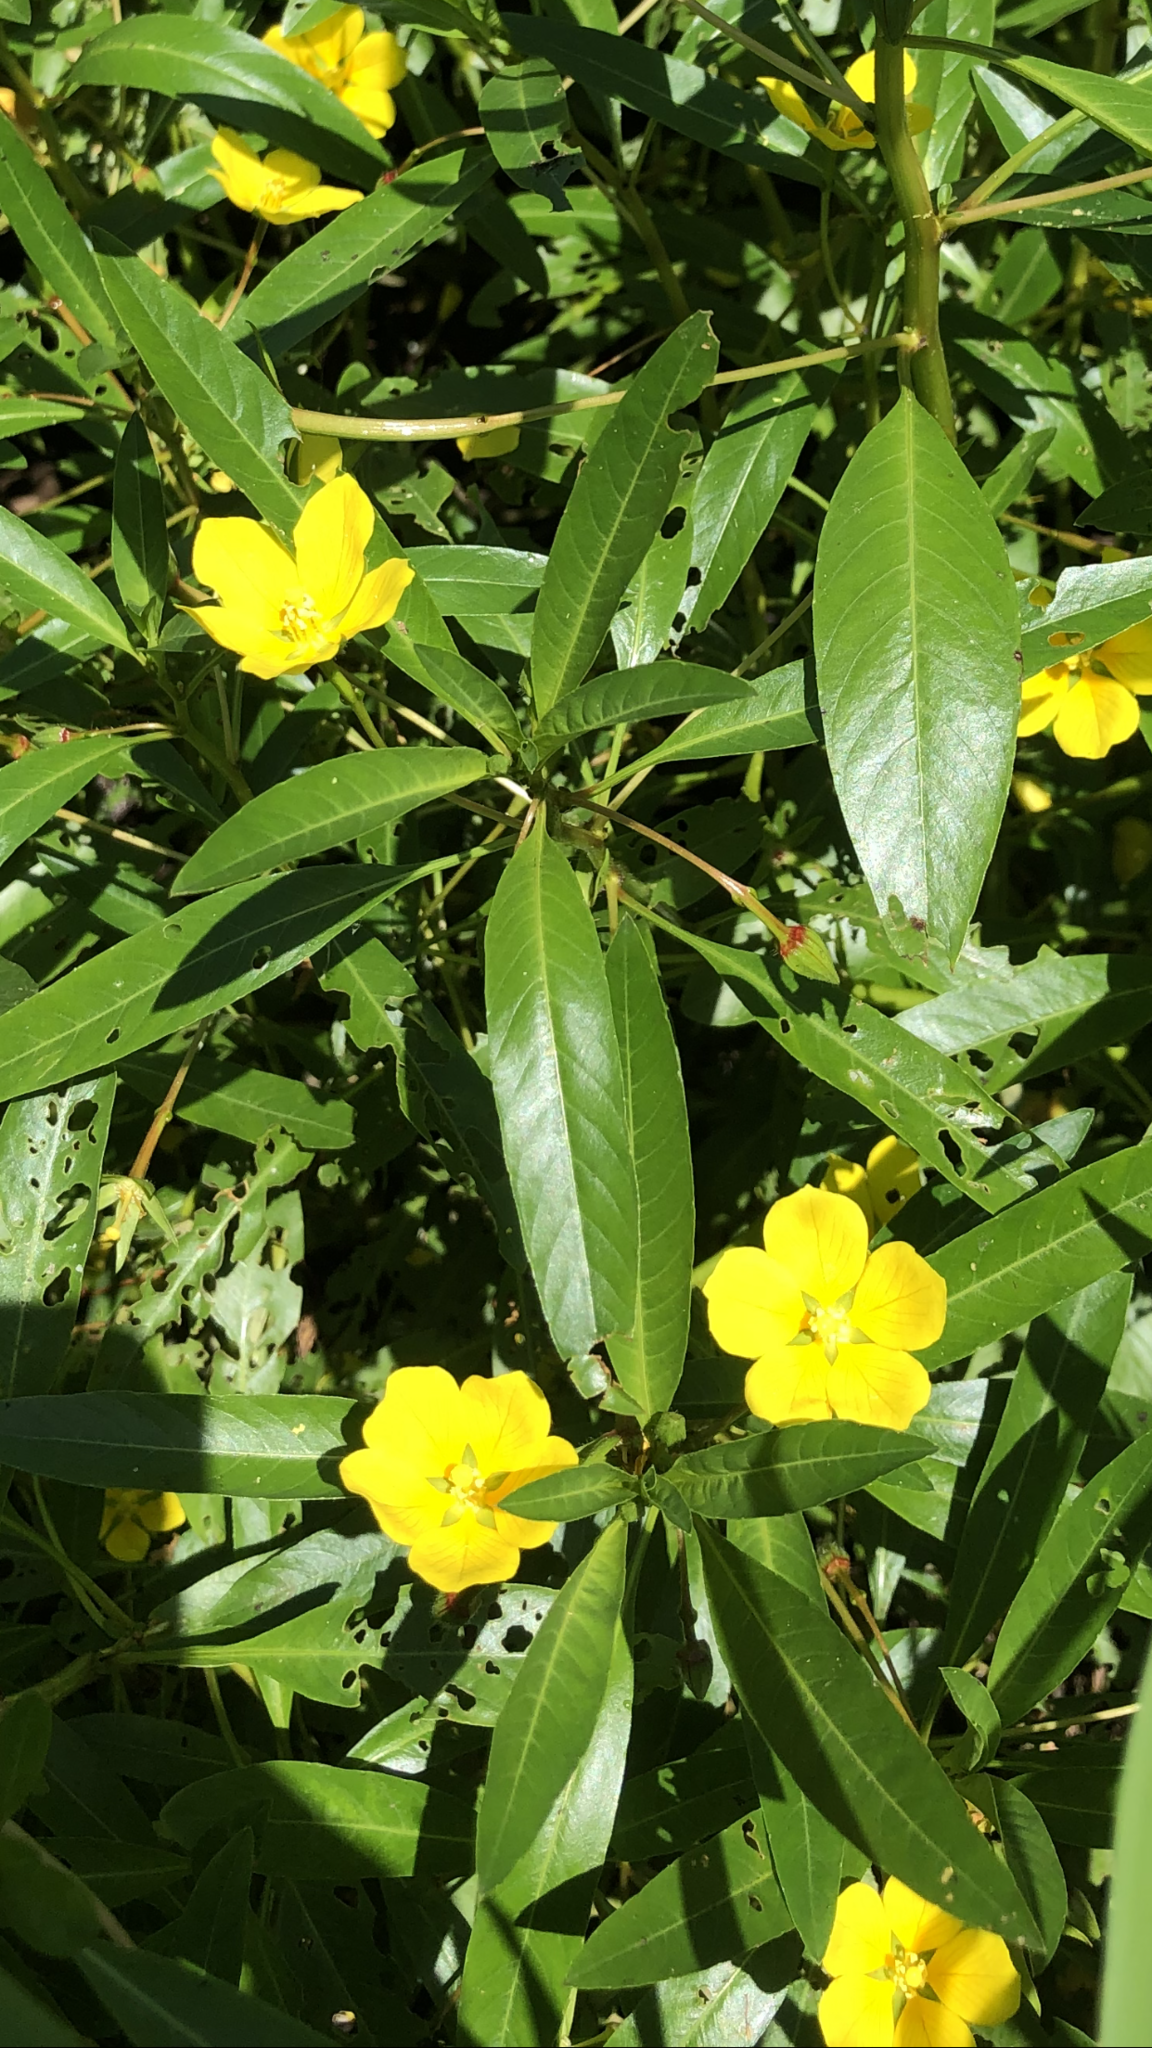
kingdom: Plantae
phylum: Tracheophyta
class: Magnoliopsida
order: Myrtales
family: Onagraceae
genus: Ludwigia
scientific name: Ludwigia peploides
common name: Floating primrose-willow
